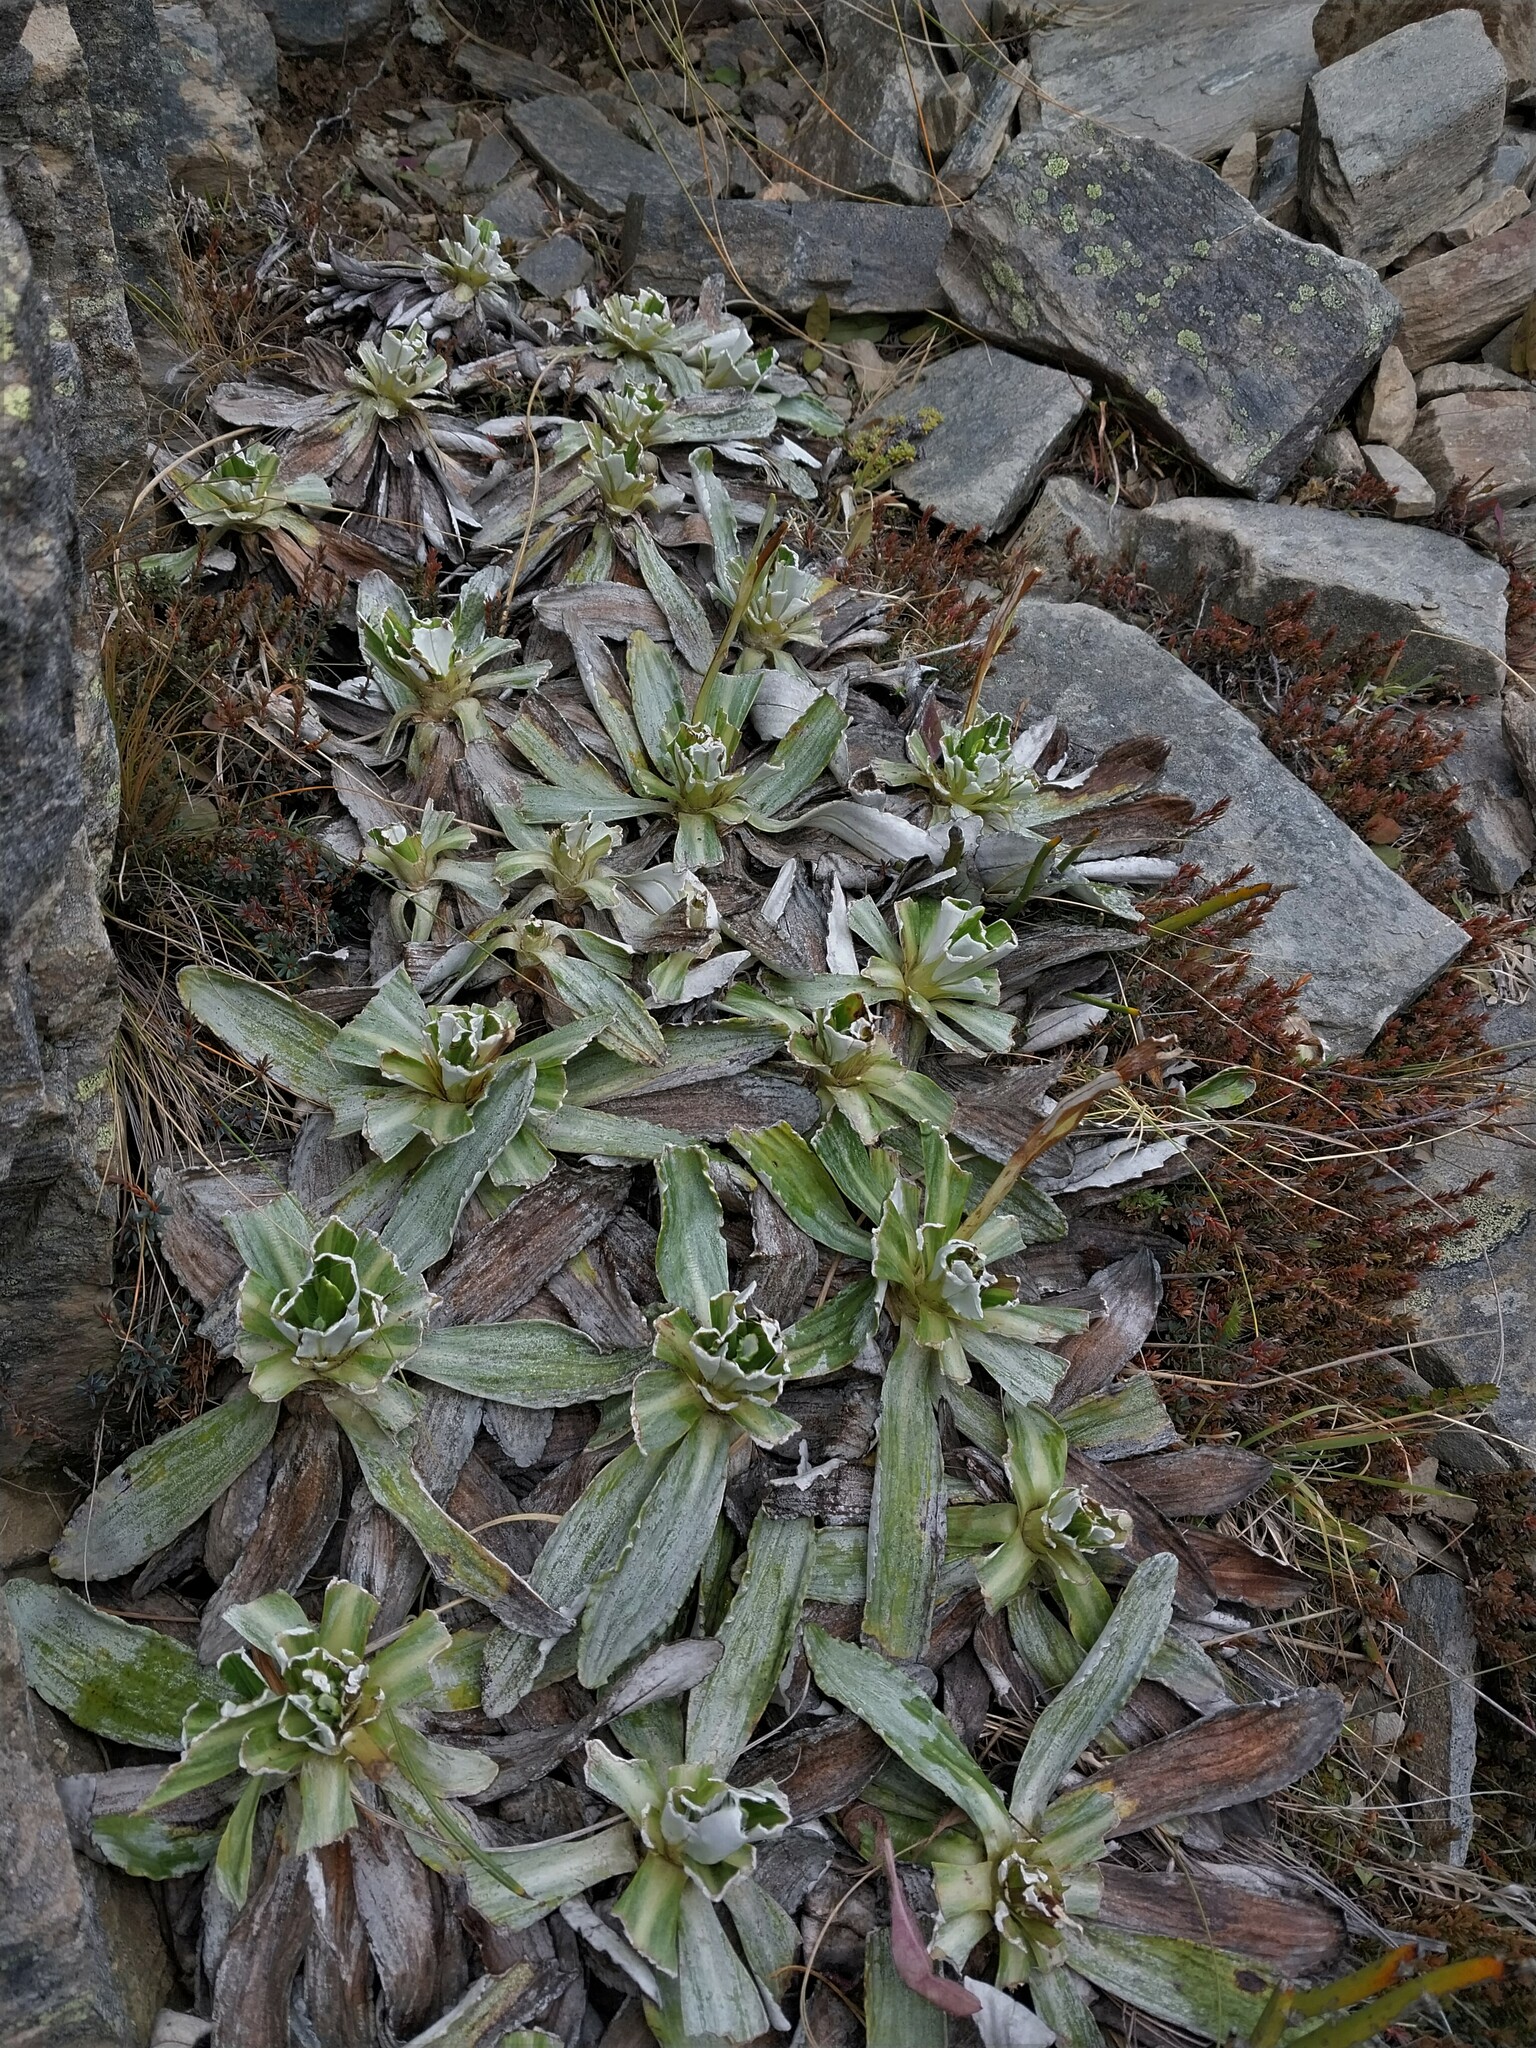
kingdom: Plantae
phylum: Tracheophyta
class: Magnoliopsida
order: Asterales
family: Asteraceae
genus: Celmisia
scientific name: Celmisia densiflora
